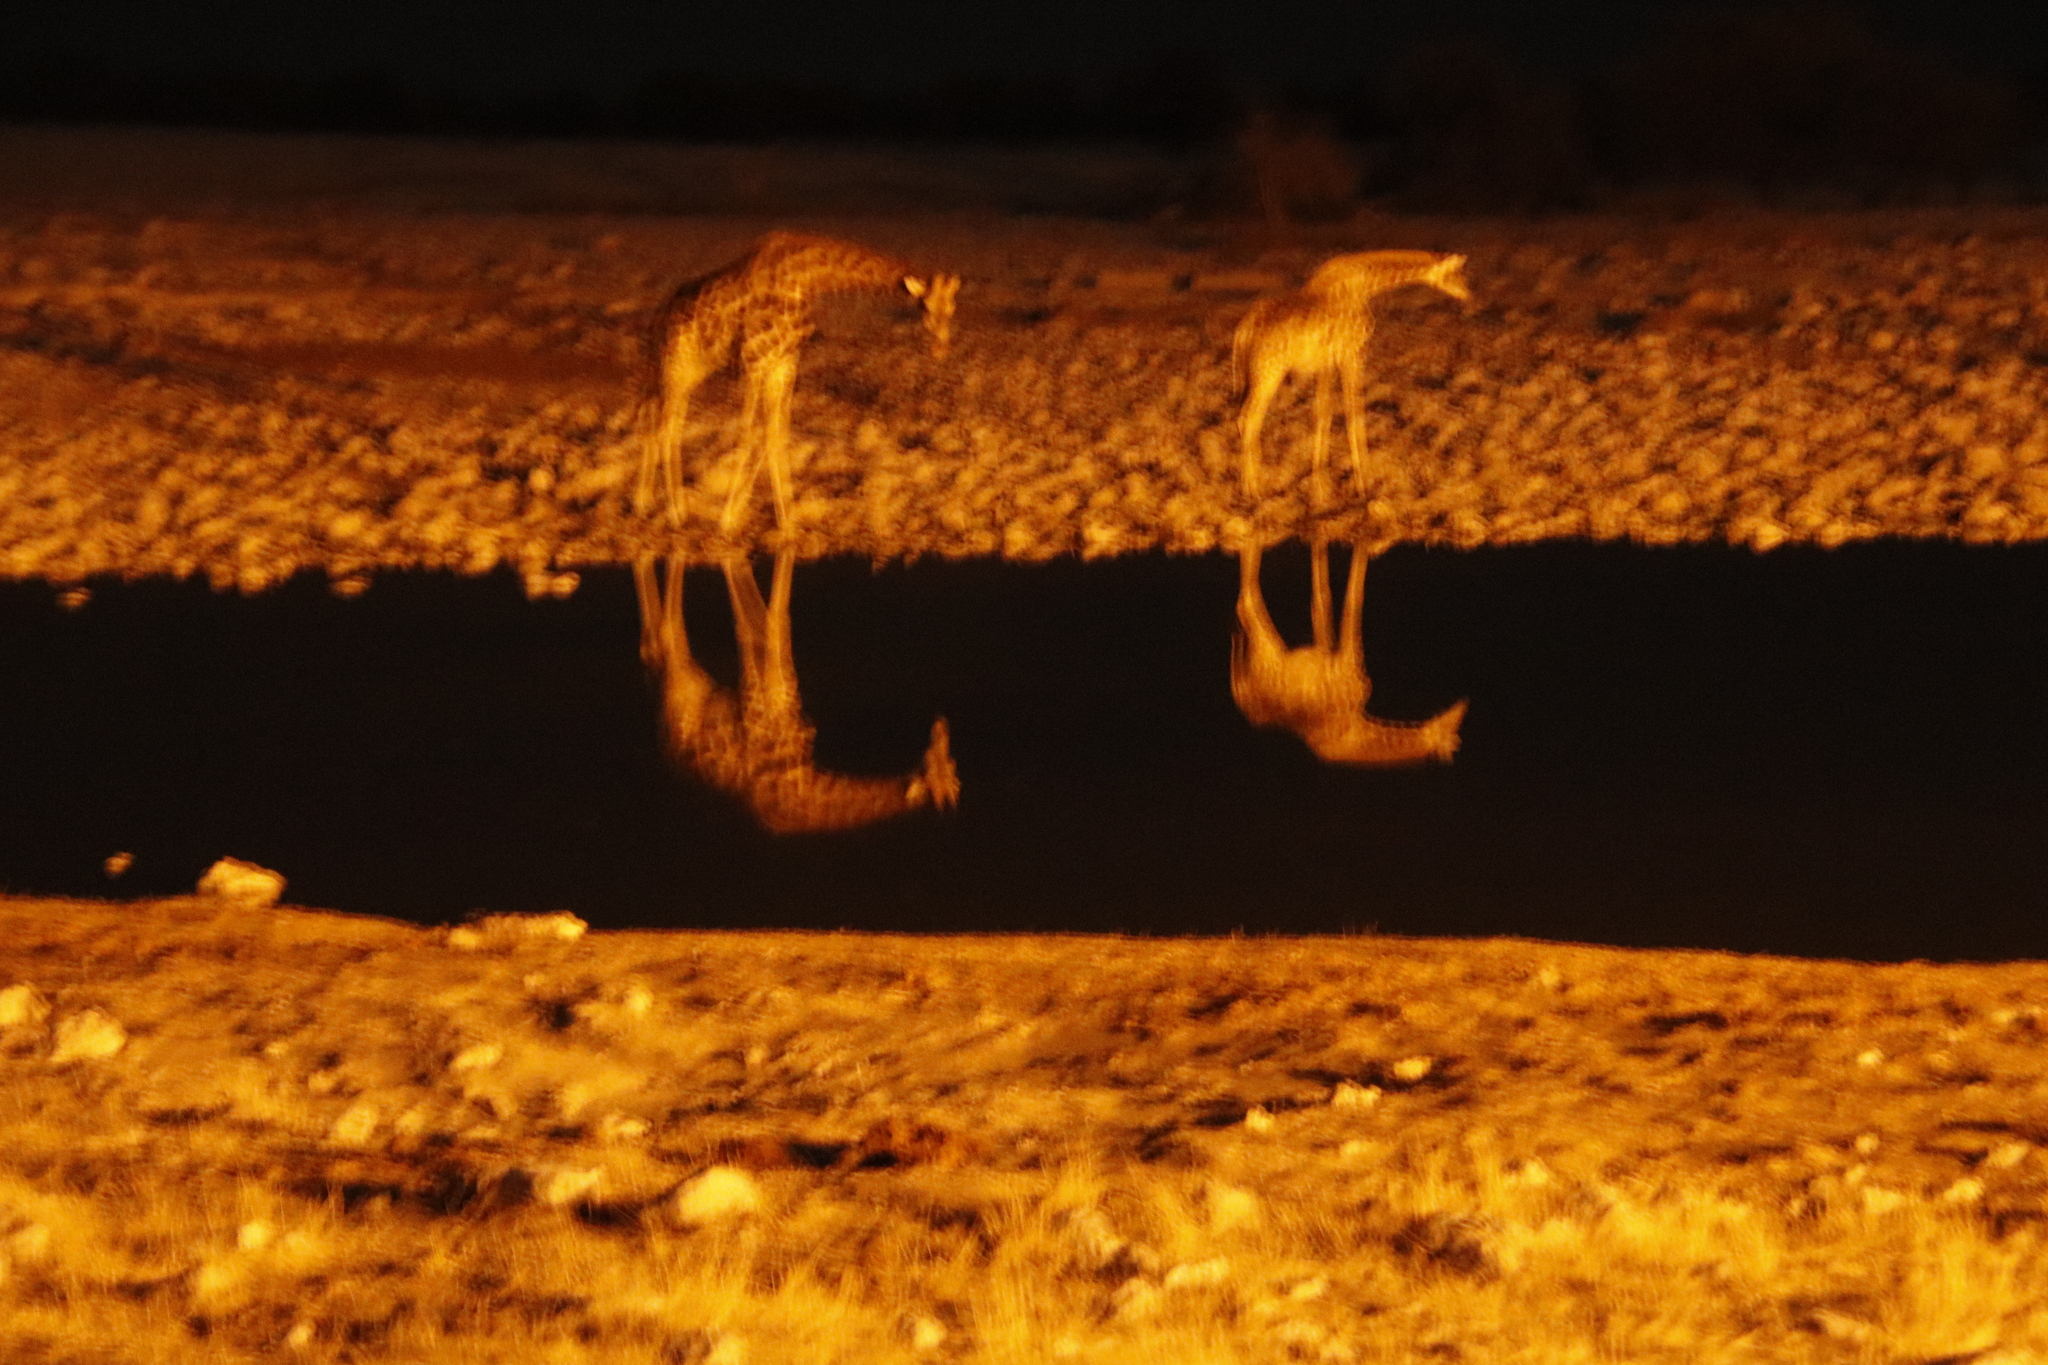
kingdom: Animalia
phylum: Chordata
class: Mammalia
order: Artiodactyla
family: Giraffidae
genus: Giraffa
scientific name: Giraffa giraffa
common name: Southern giraffe
